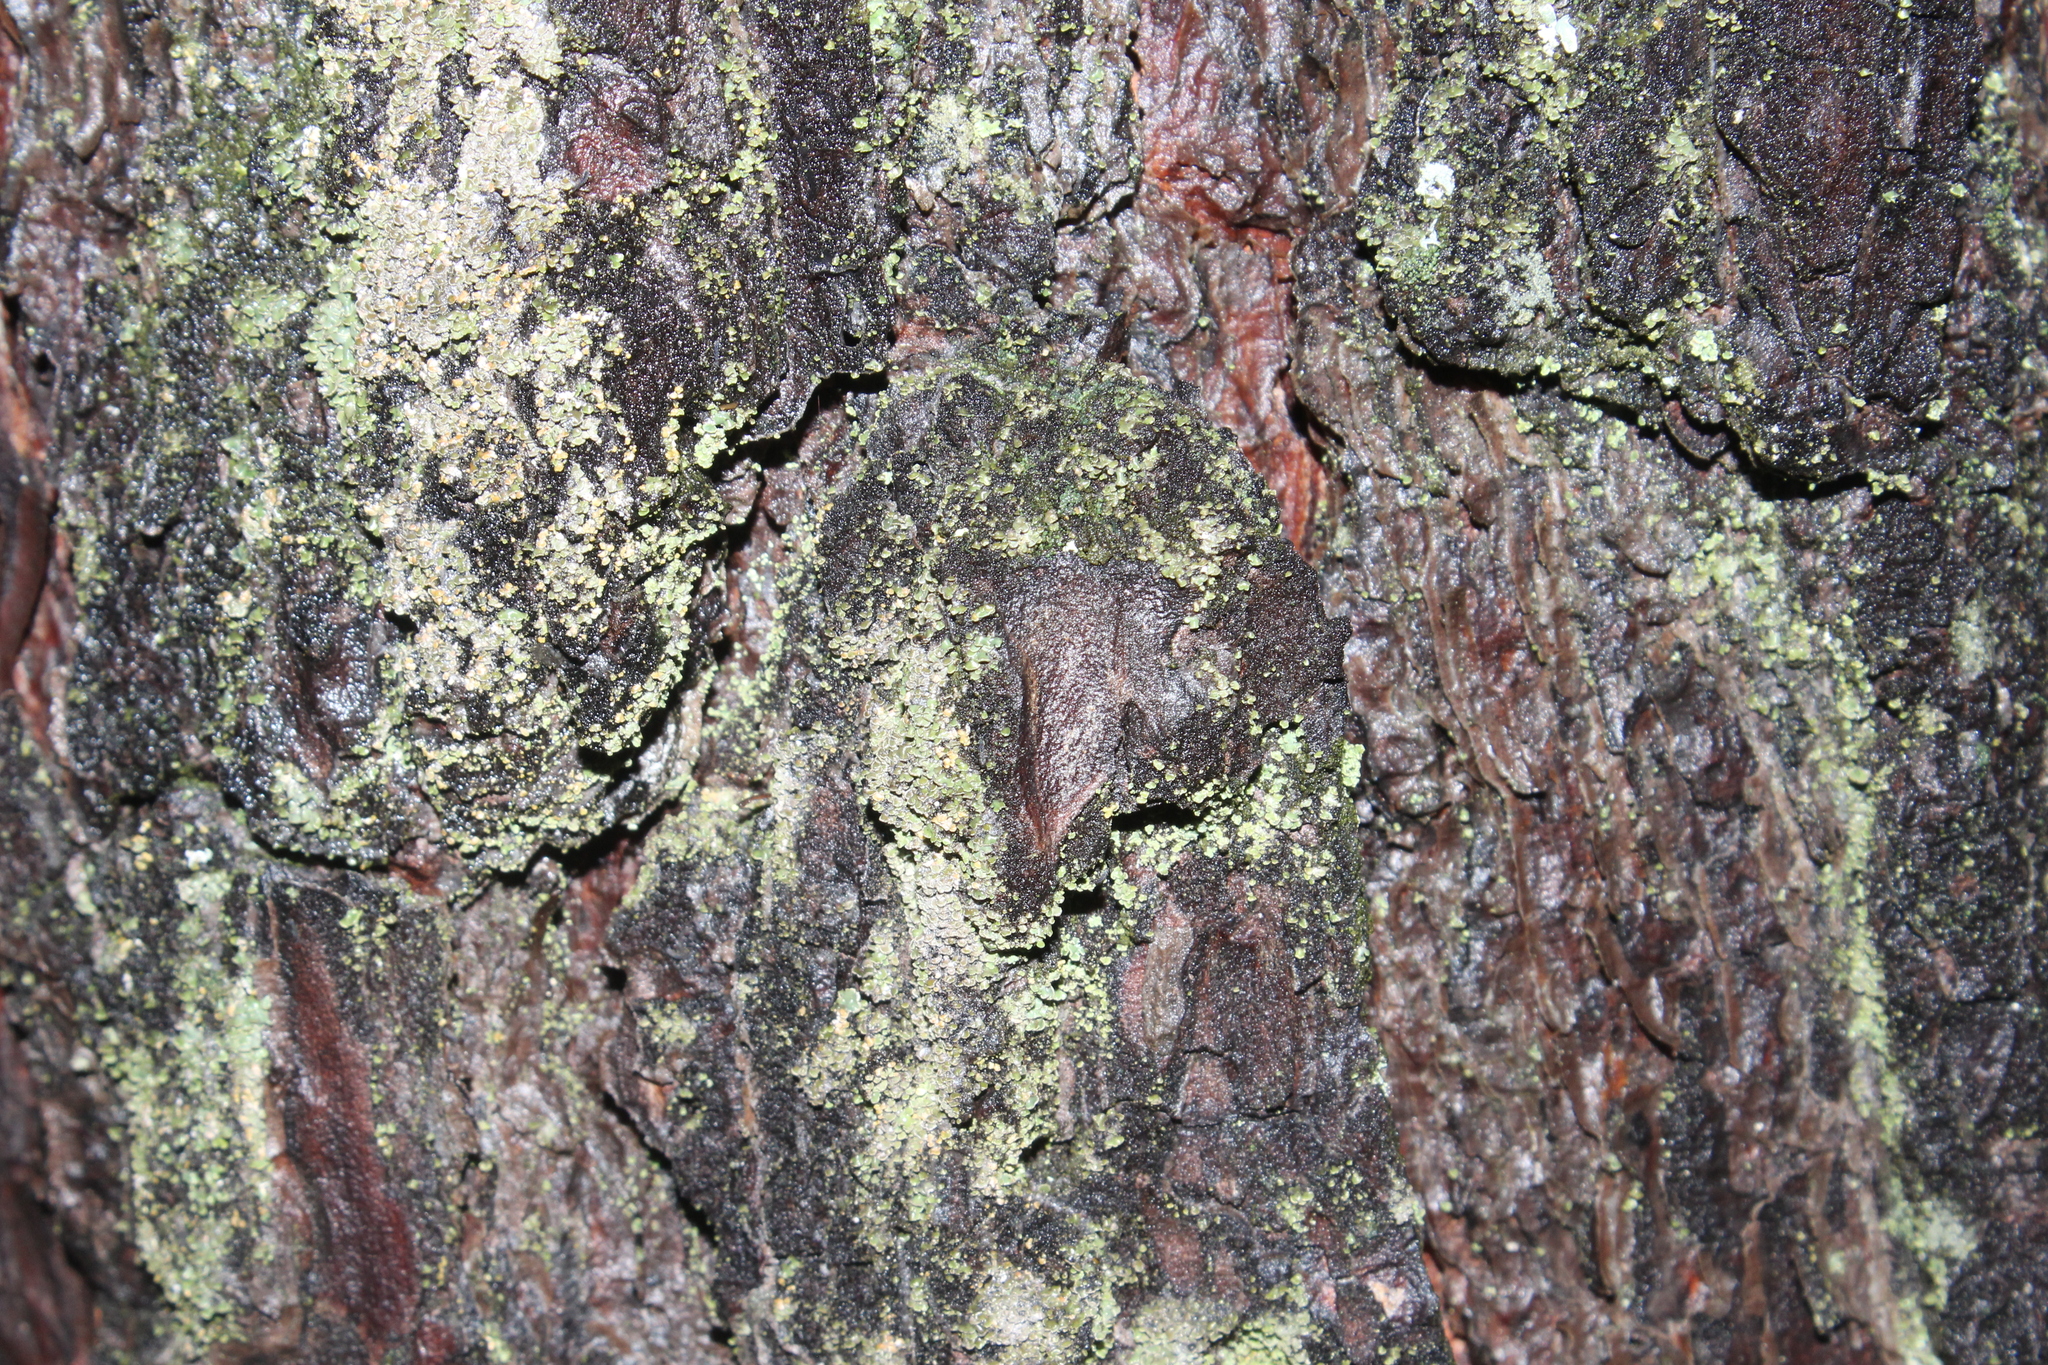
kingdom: Plantae
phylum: Tracheophyta
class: Pinopsida
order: Pinales
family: Pinaceae
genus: Pinus
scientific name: Pinus resinosa
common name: Norway pine
